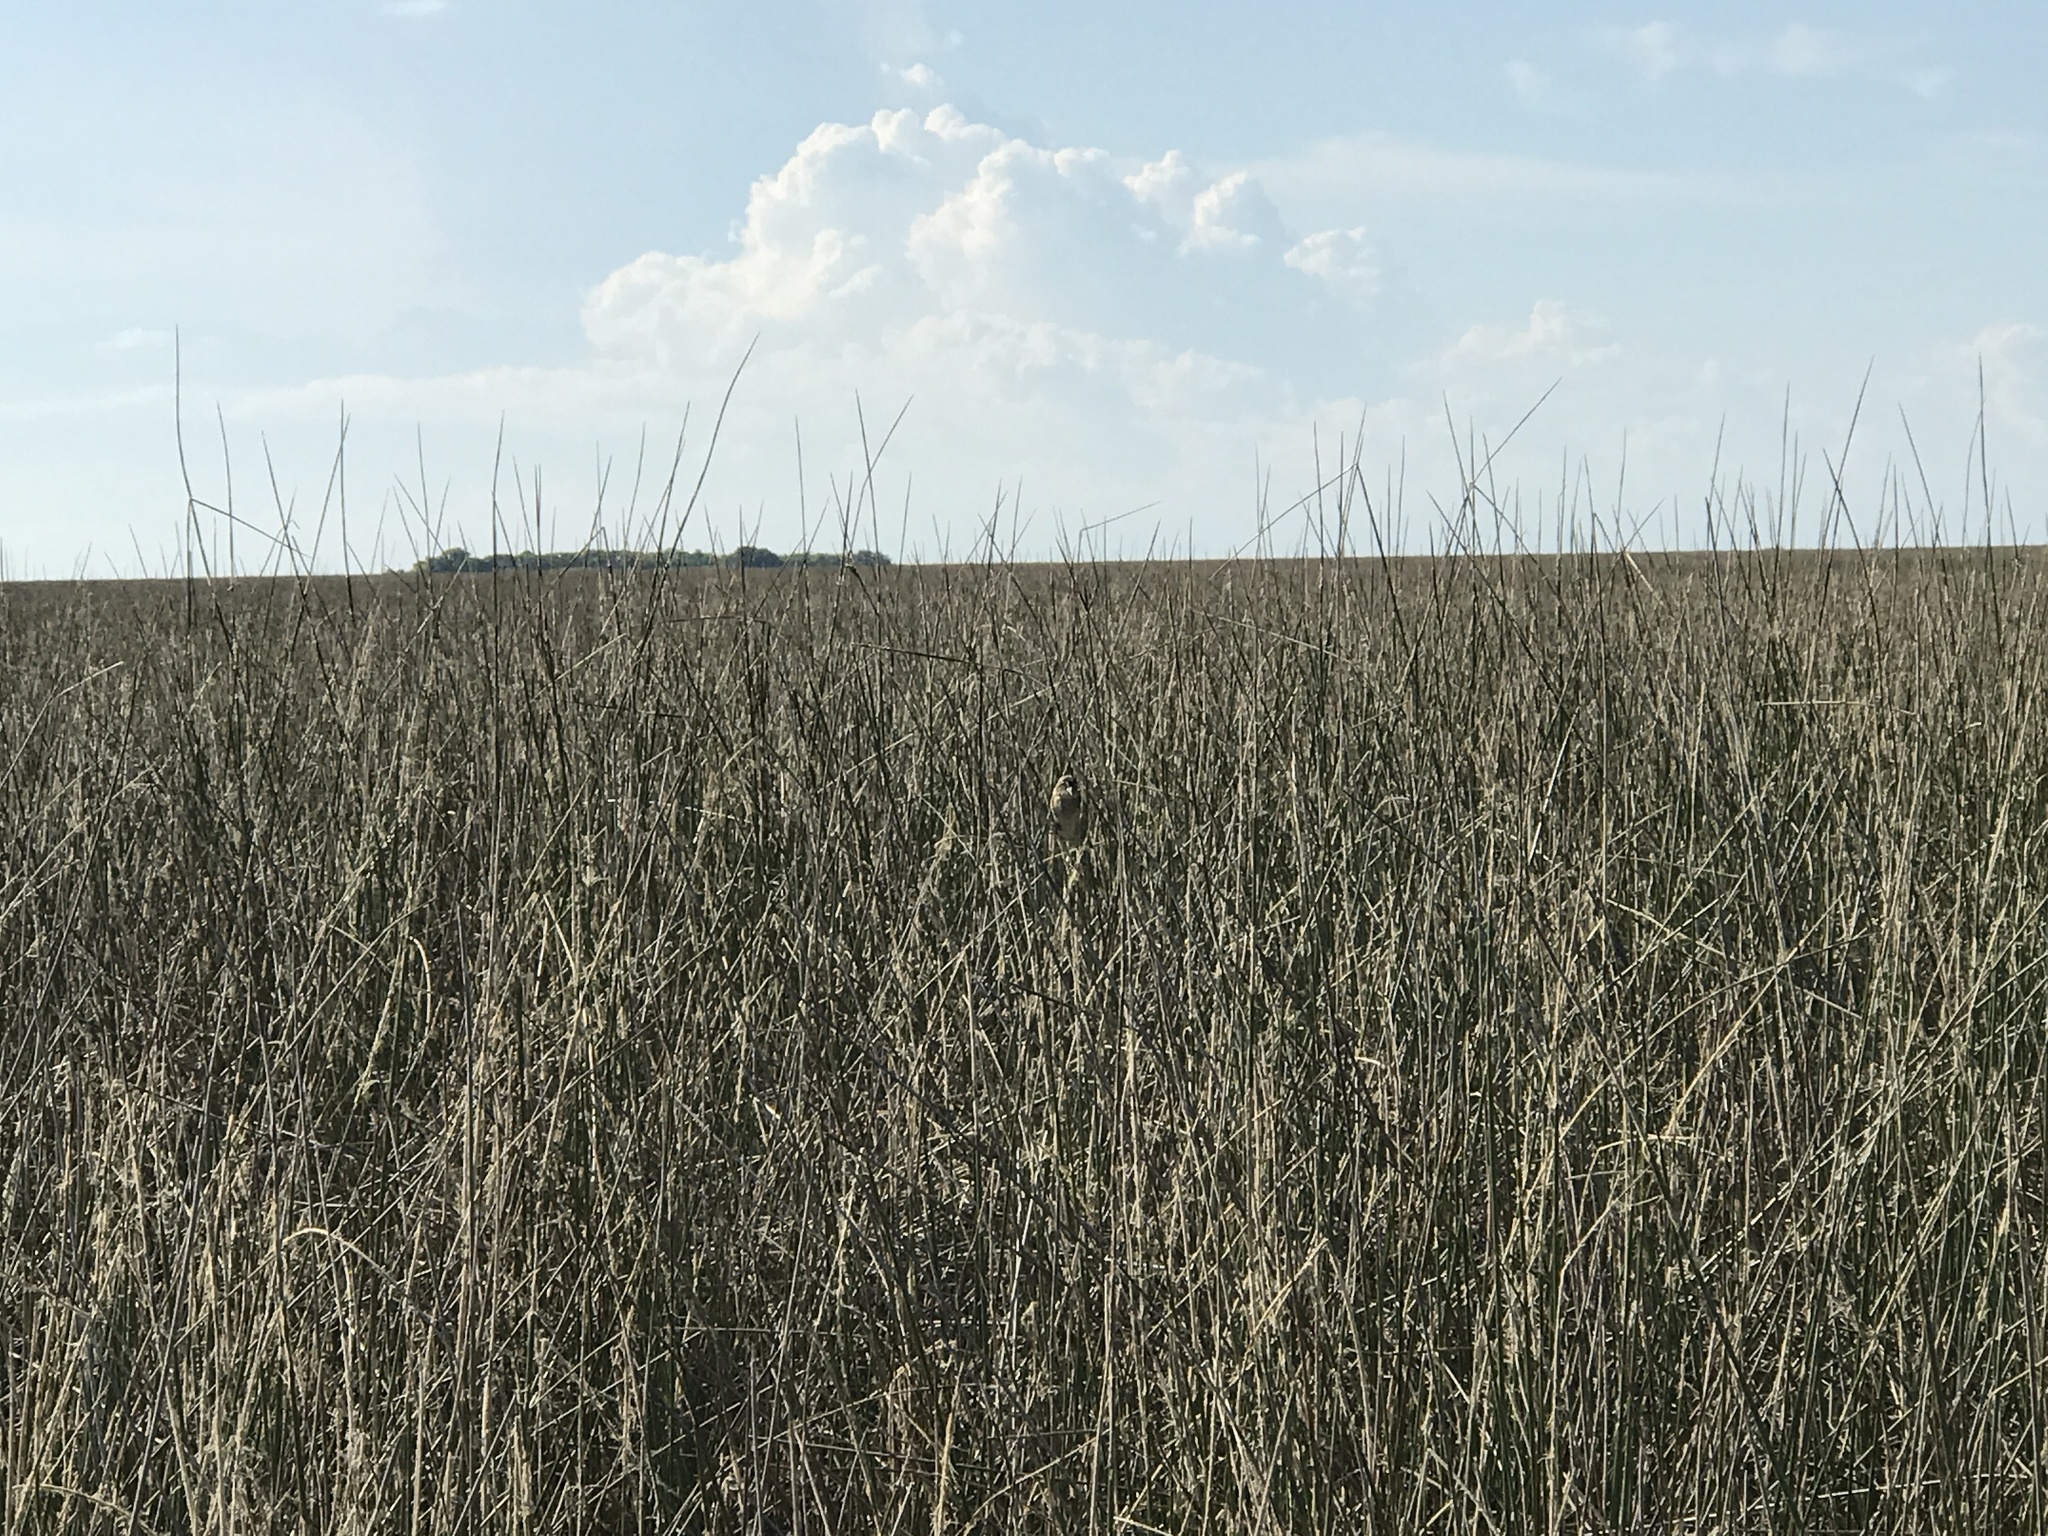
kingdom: Animalia
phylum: Chordata
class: Aves
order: Passeriformes
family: Passerellidae
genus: Ammospiza
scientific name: Ammospiza maritima
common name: Seaside sparrow
